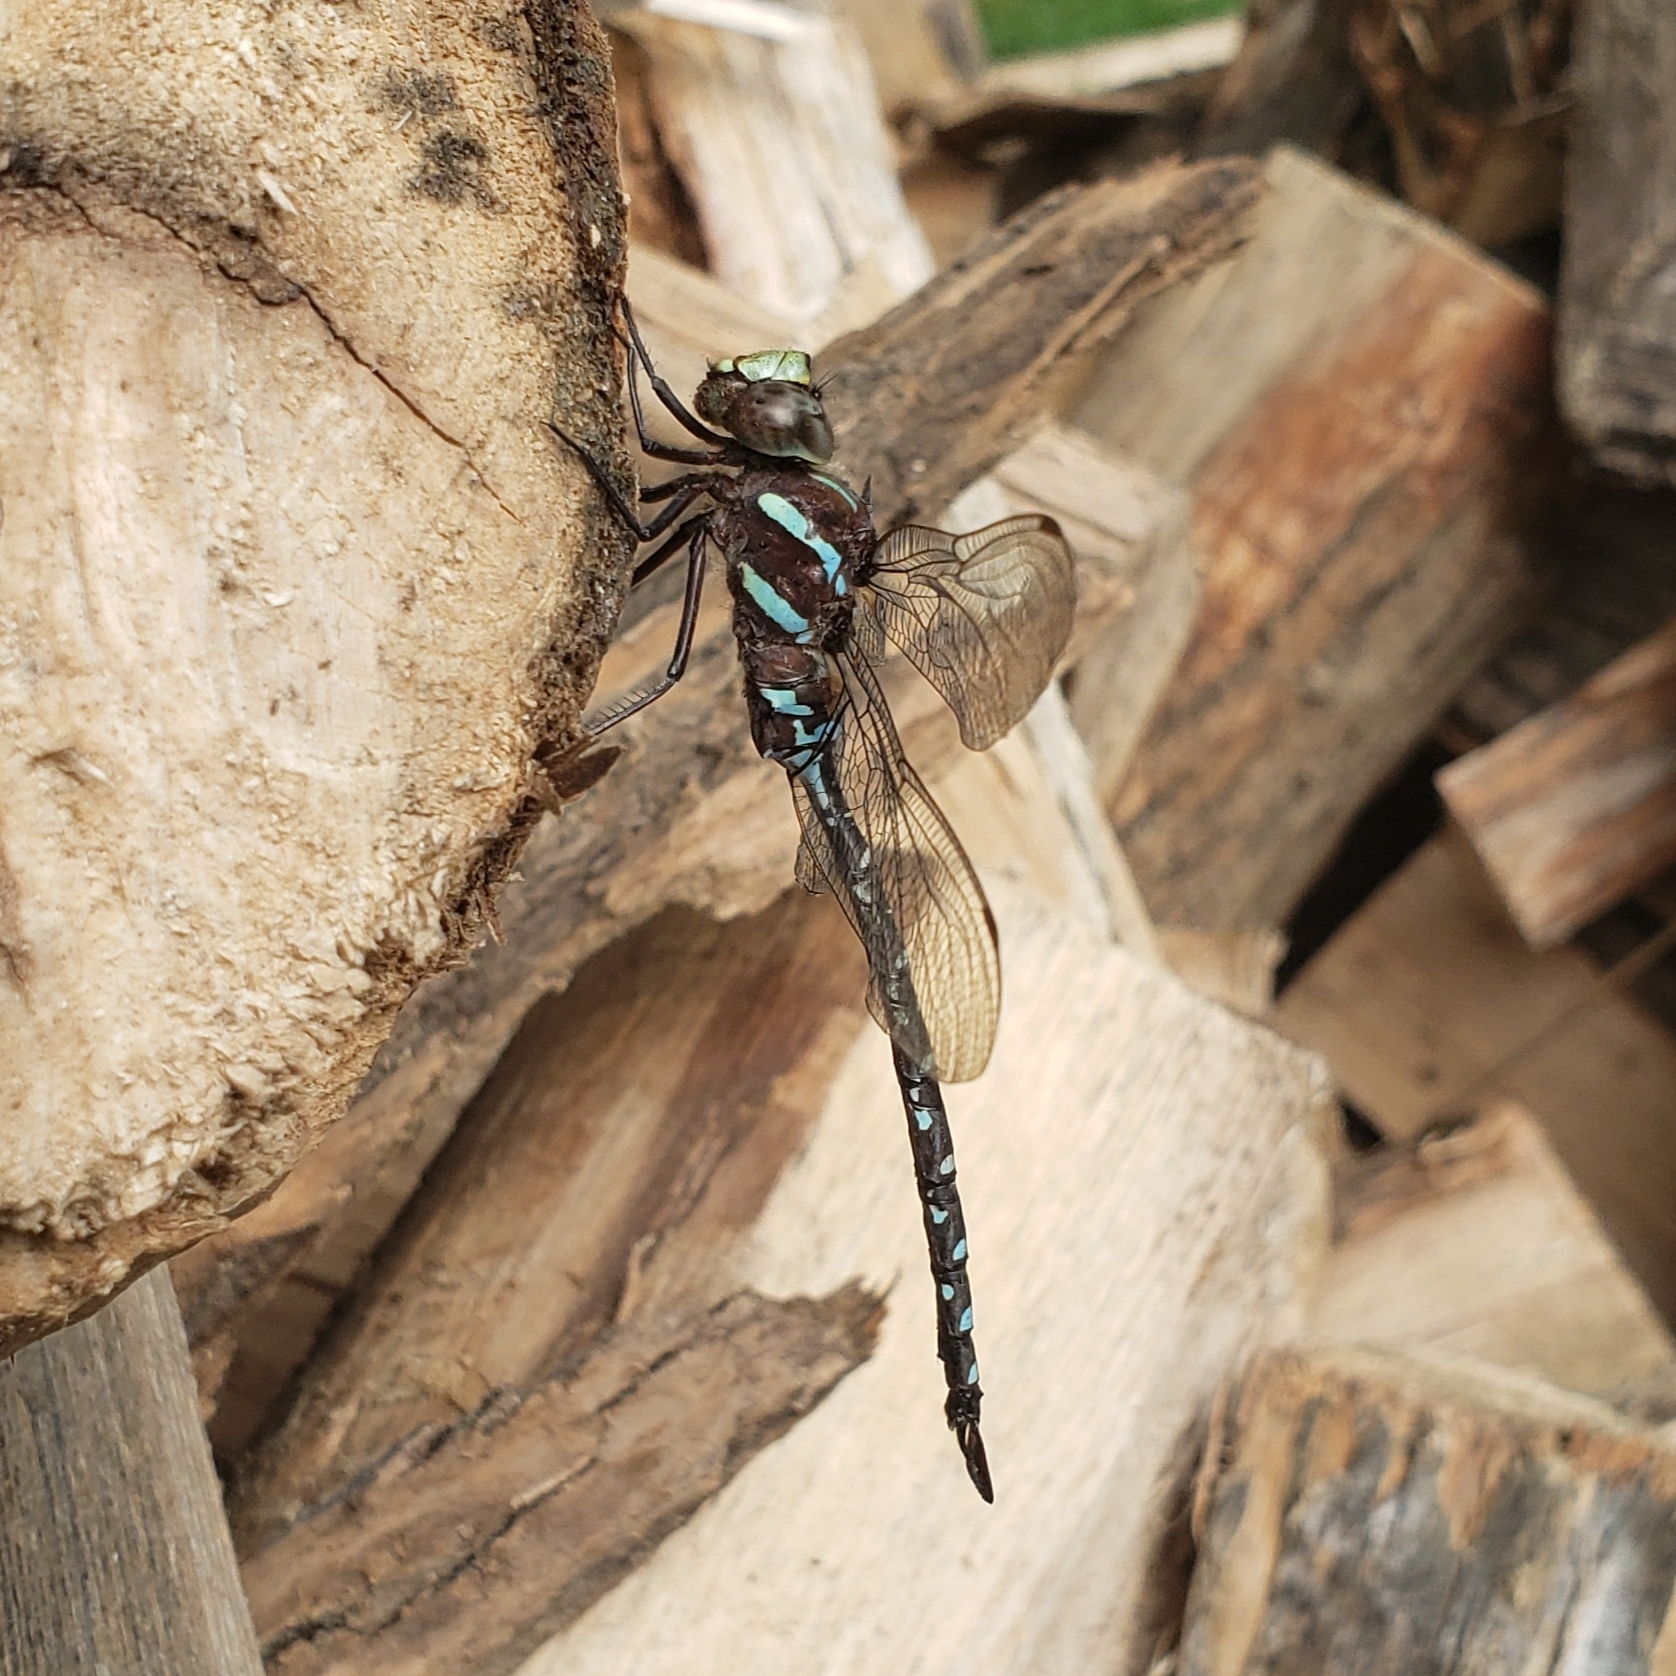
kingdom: Animalia
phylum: Arthropoda
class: Insecta
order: Odonata
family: Aeshnidae
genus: Aeshna
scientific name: Aeshna tuberculifera
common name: Aeschne à tubercules
